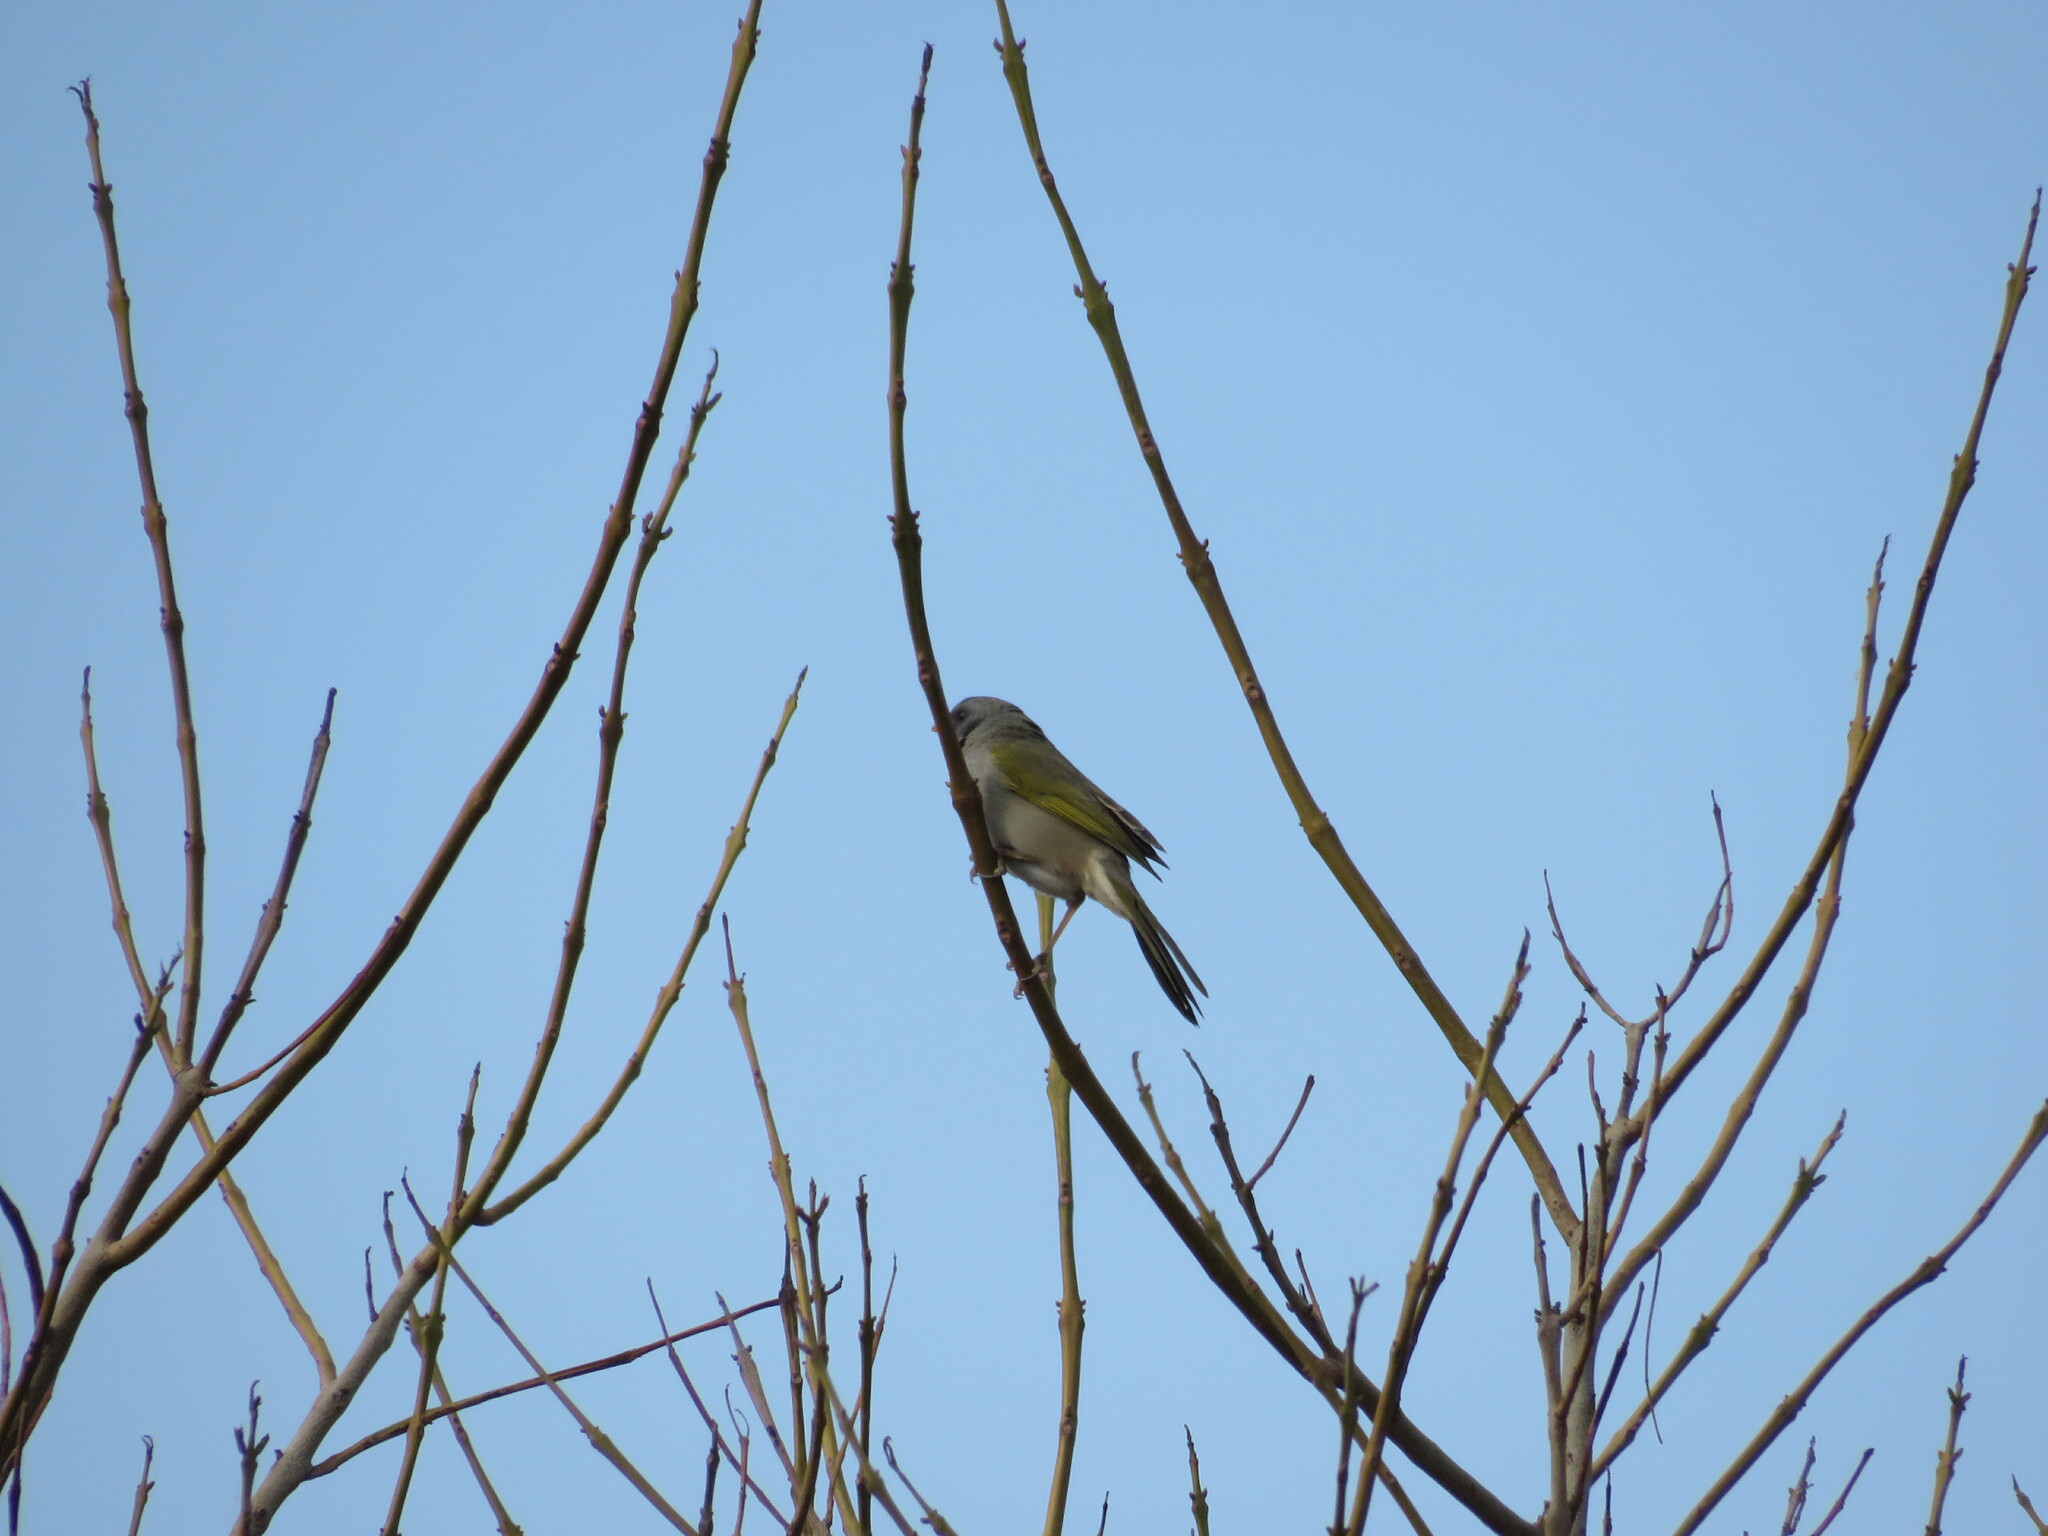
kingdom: Animalia
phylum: Chordata
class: Aves
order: Passeriformes
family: Thraupidae
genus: Embernagra
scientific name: Embernagra platensis
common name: Pampa finch
